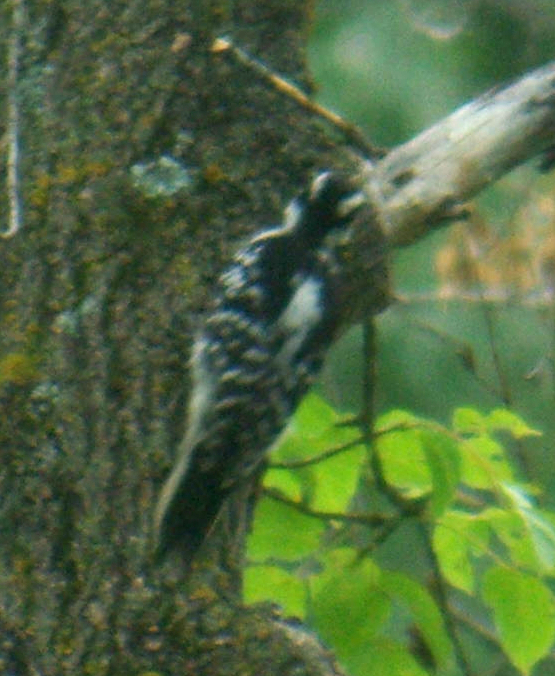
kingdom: Animalia
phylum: Chordata
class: Aves
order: Piciformes
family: Picidae
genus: Dryobates
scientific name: Dryobates pubescens
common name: Downy woodpecker
